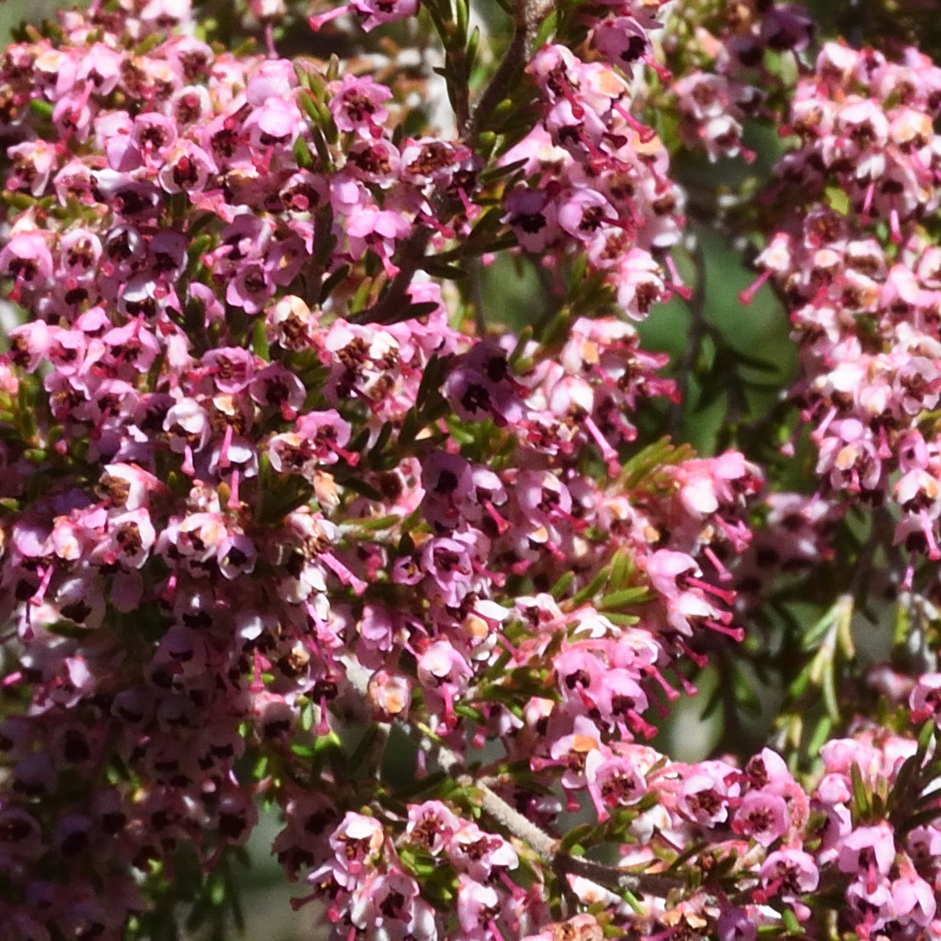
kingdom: Plantae
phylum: Tracheophyta
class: Magnoliopsida
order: Ericales
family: Ericaceae
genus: Erica
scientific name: Erica canaliculata
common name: Hairy grey heather
